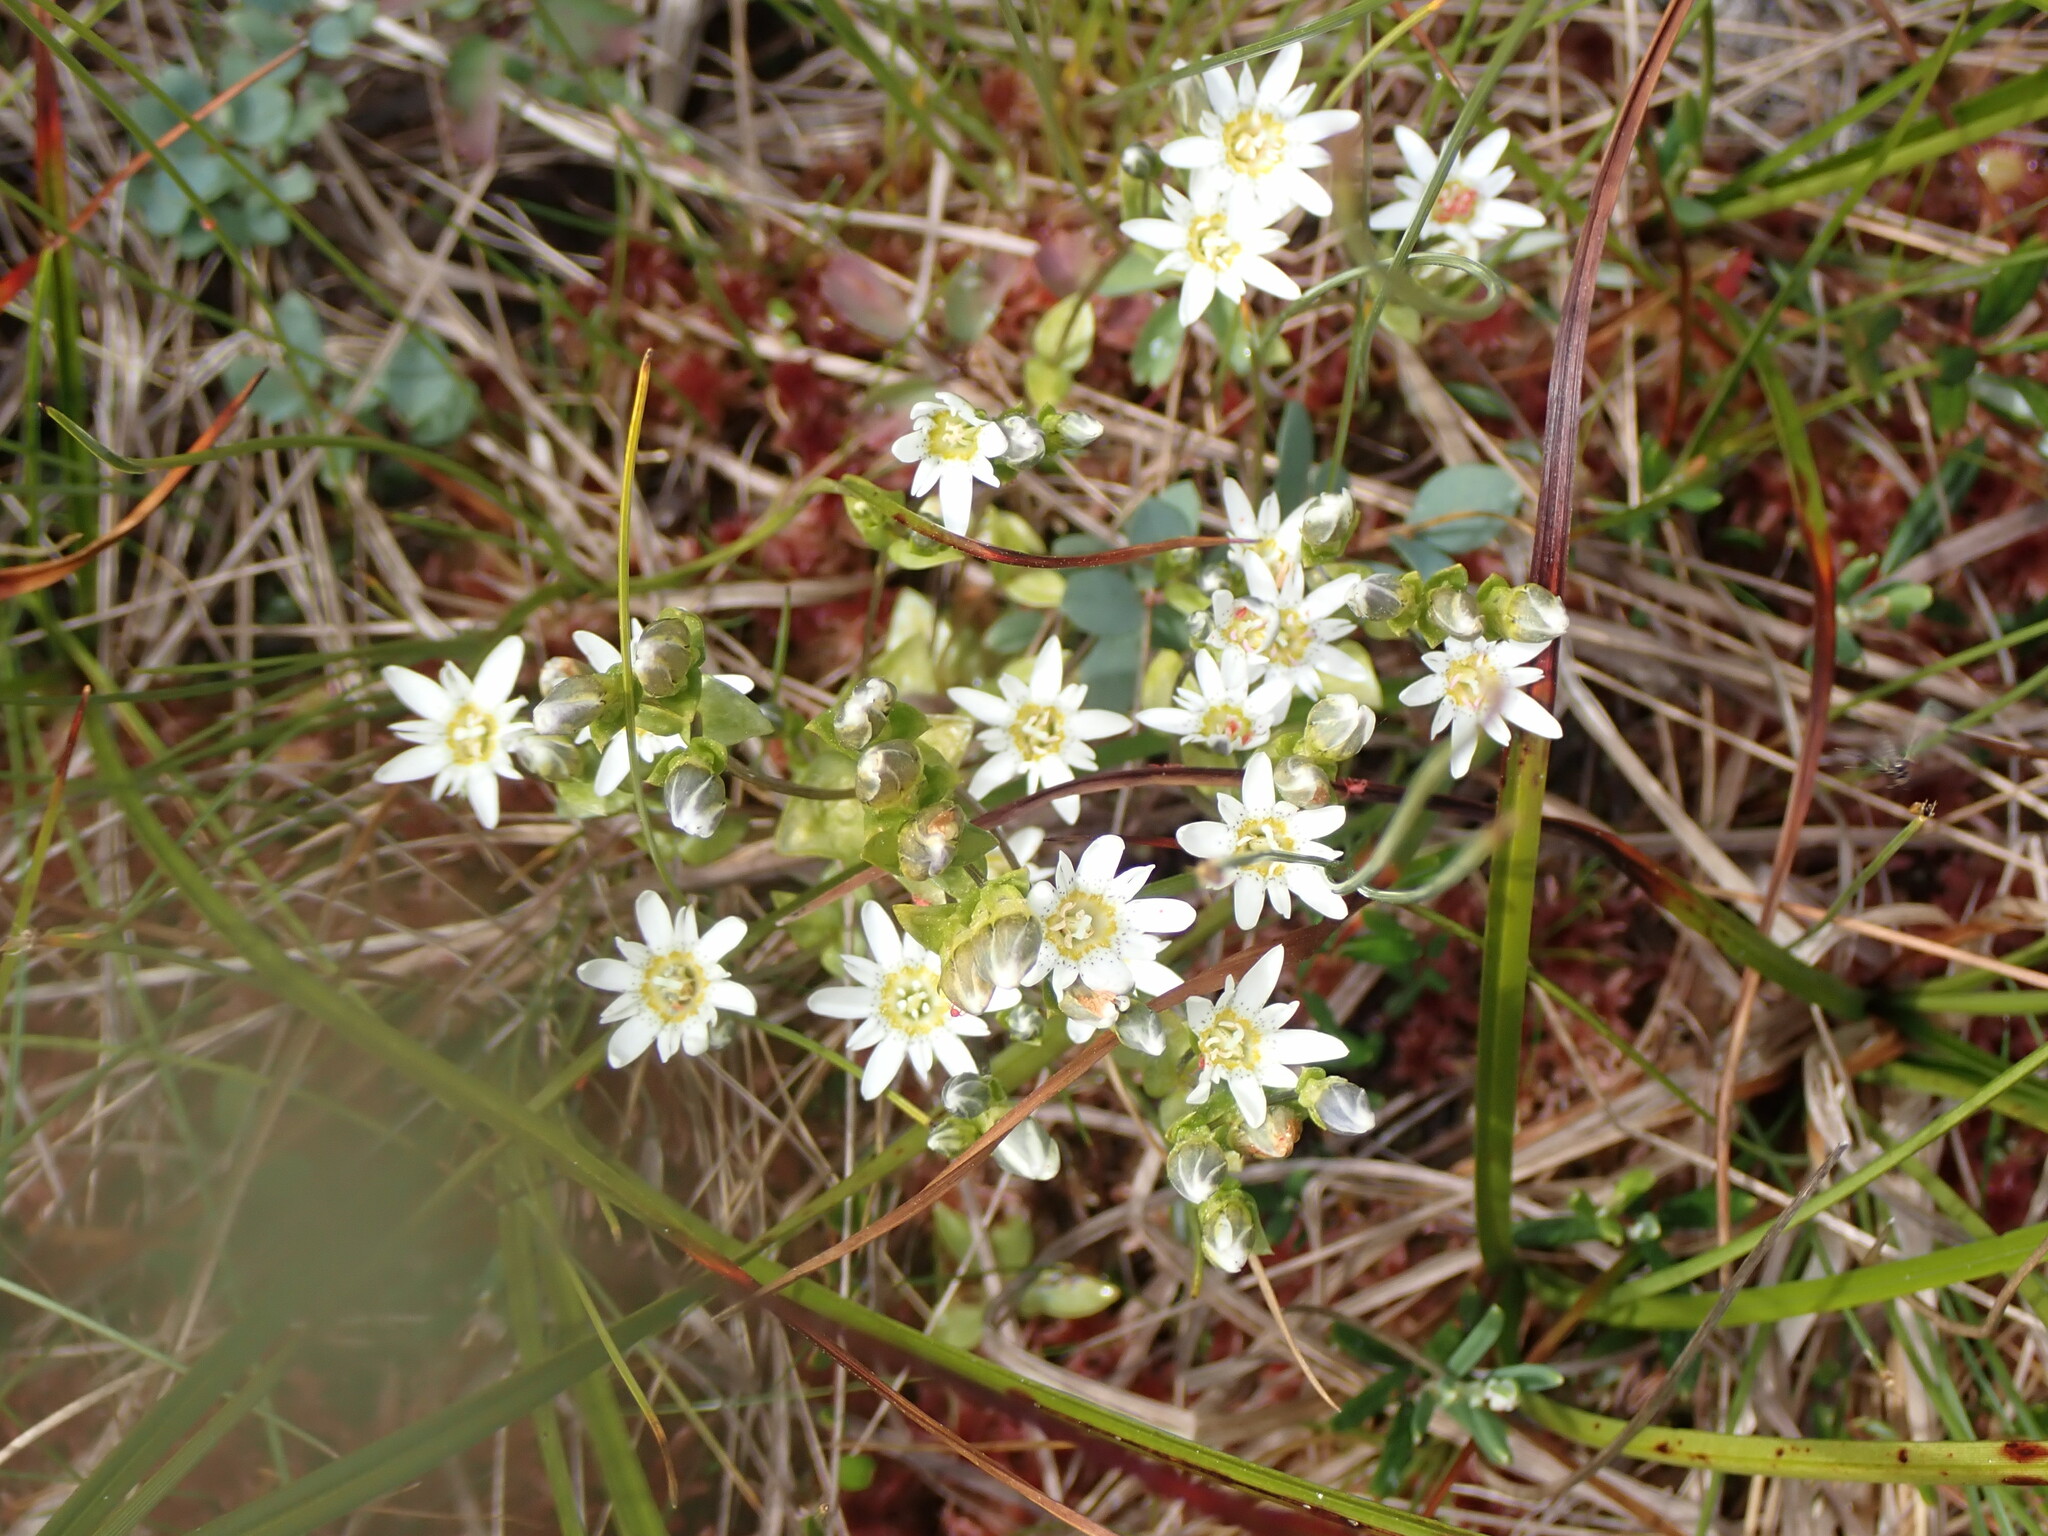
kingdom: Plantae
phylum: Tracheophyta
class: Magnoliopsida
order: Gentianales
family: Gentianaceae
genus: Gentiana
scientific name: Gentiana douglasiana
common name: Swamp gentian
